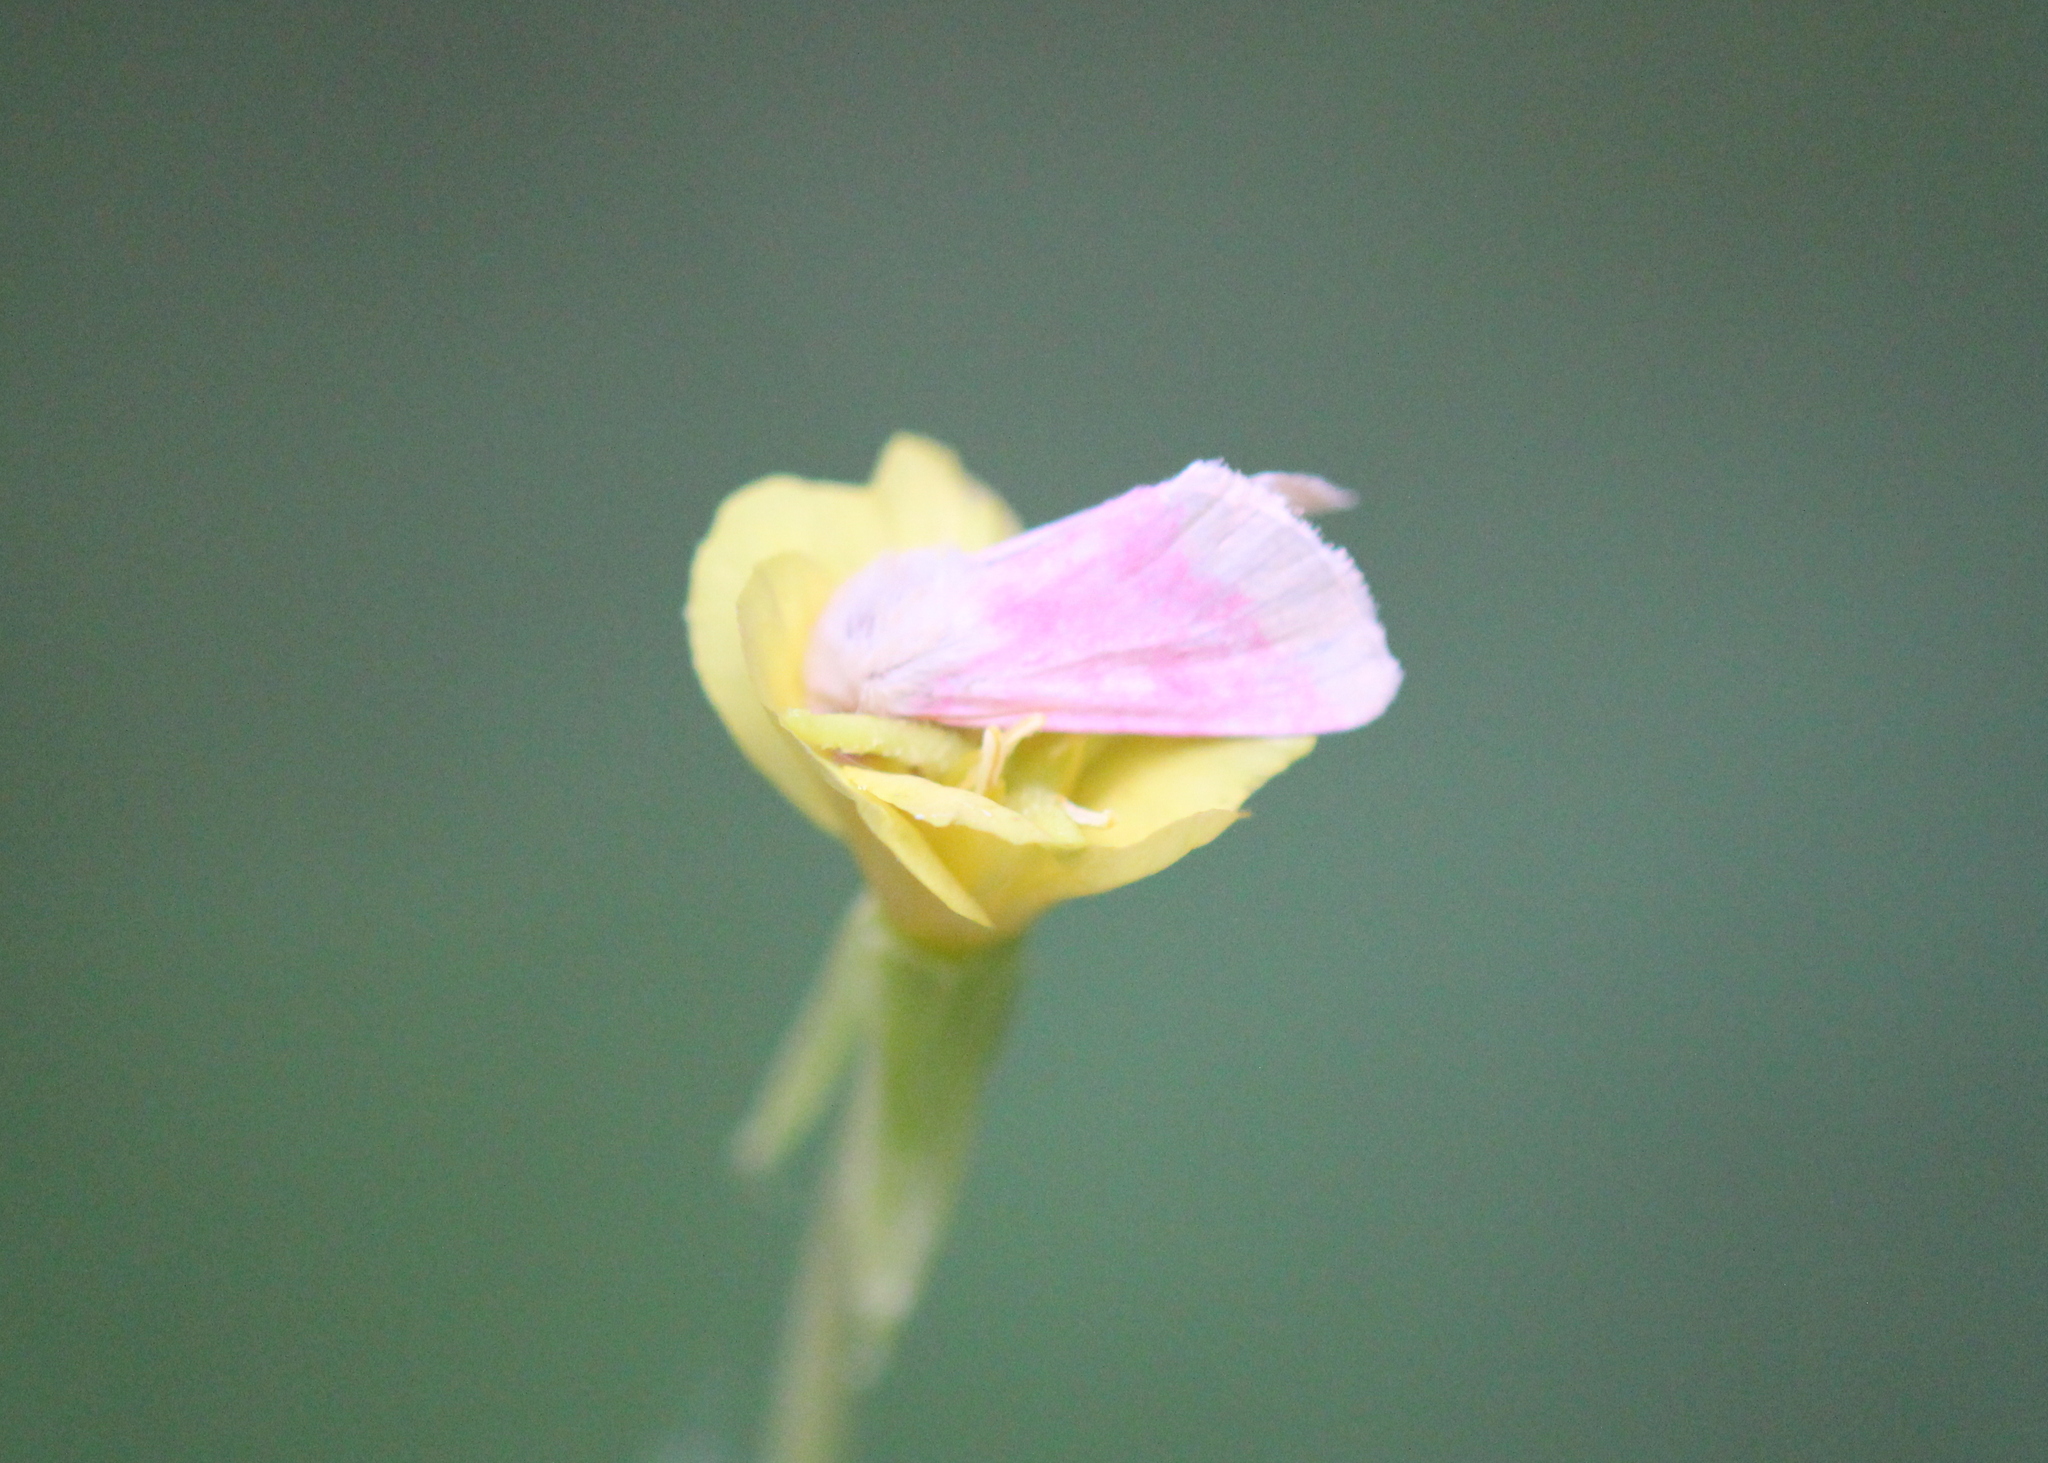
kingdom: Animalia
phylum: Arthropoda
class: Insecta
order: Lepidoptera
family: Noctuidae
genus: Schinia
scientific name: Schinia florida
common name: Primrose moth
